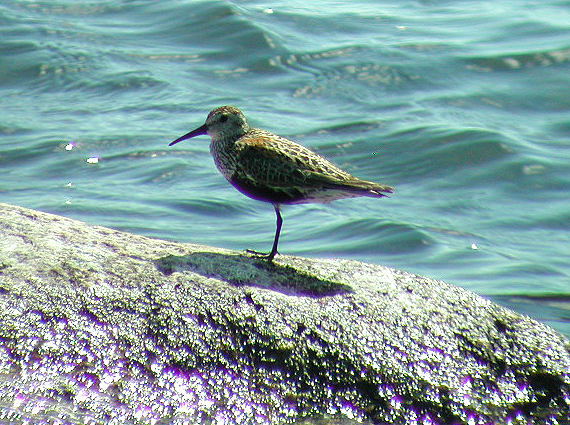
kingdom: Animalia
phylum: Chordata
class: Aves
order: Charadriiformes
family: Scolopacidae
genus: Calidris
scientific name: Calidris alpina
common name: Dunlin
